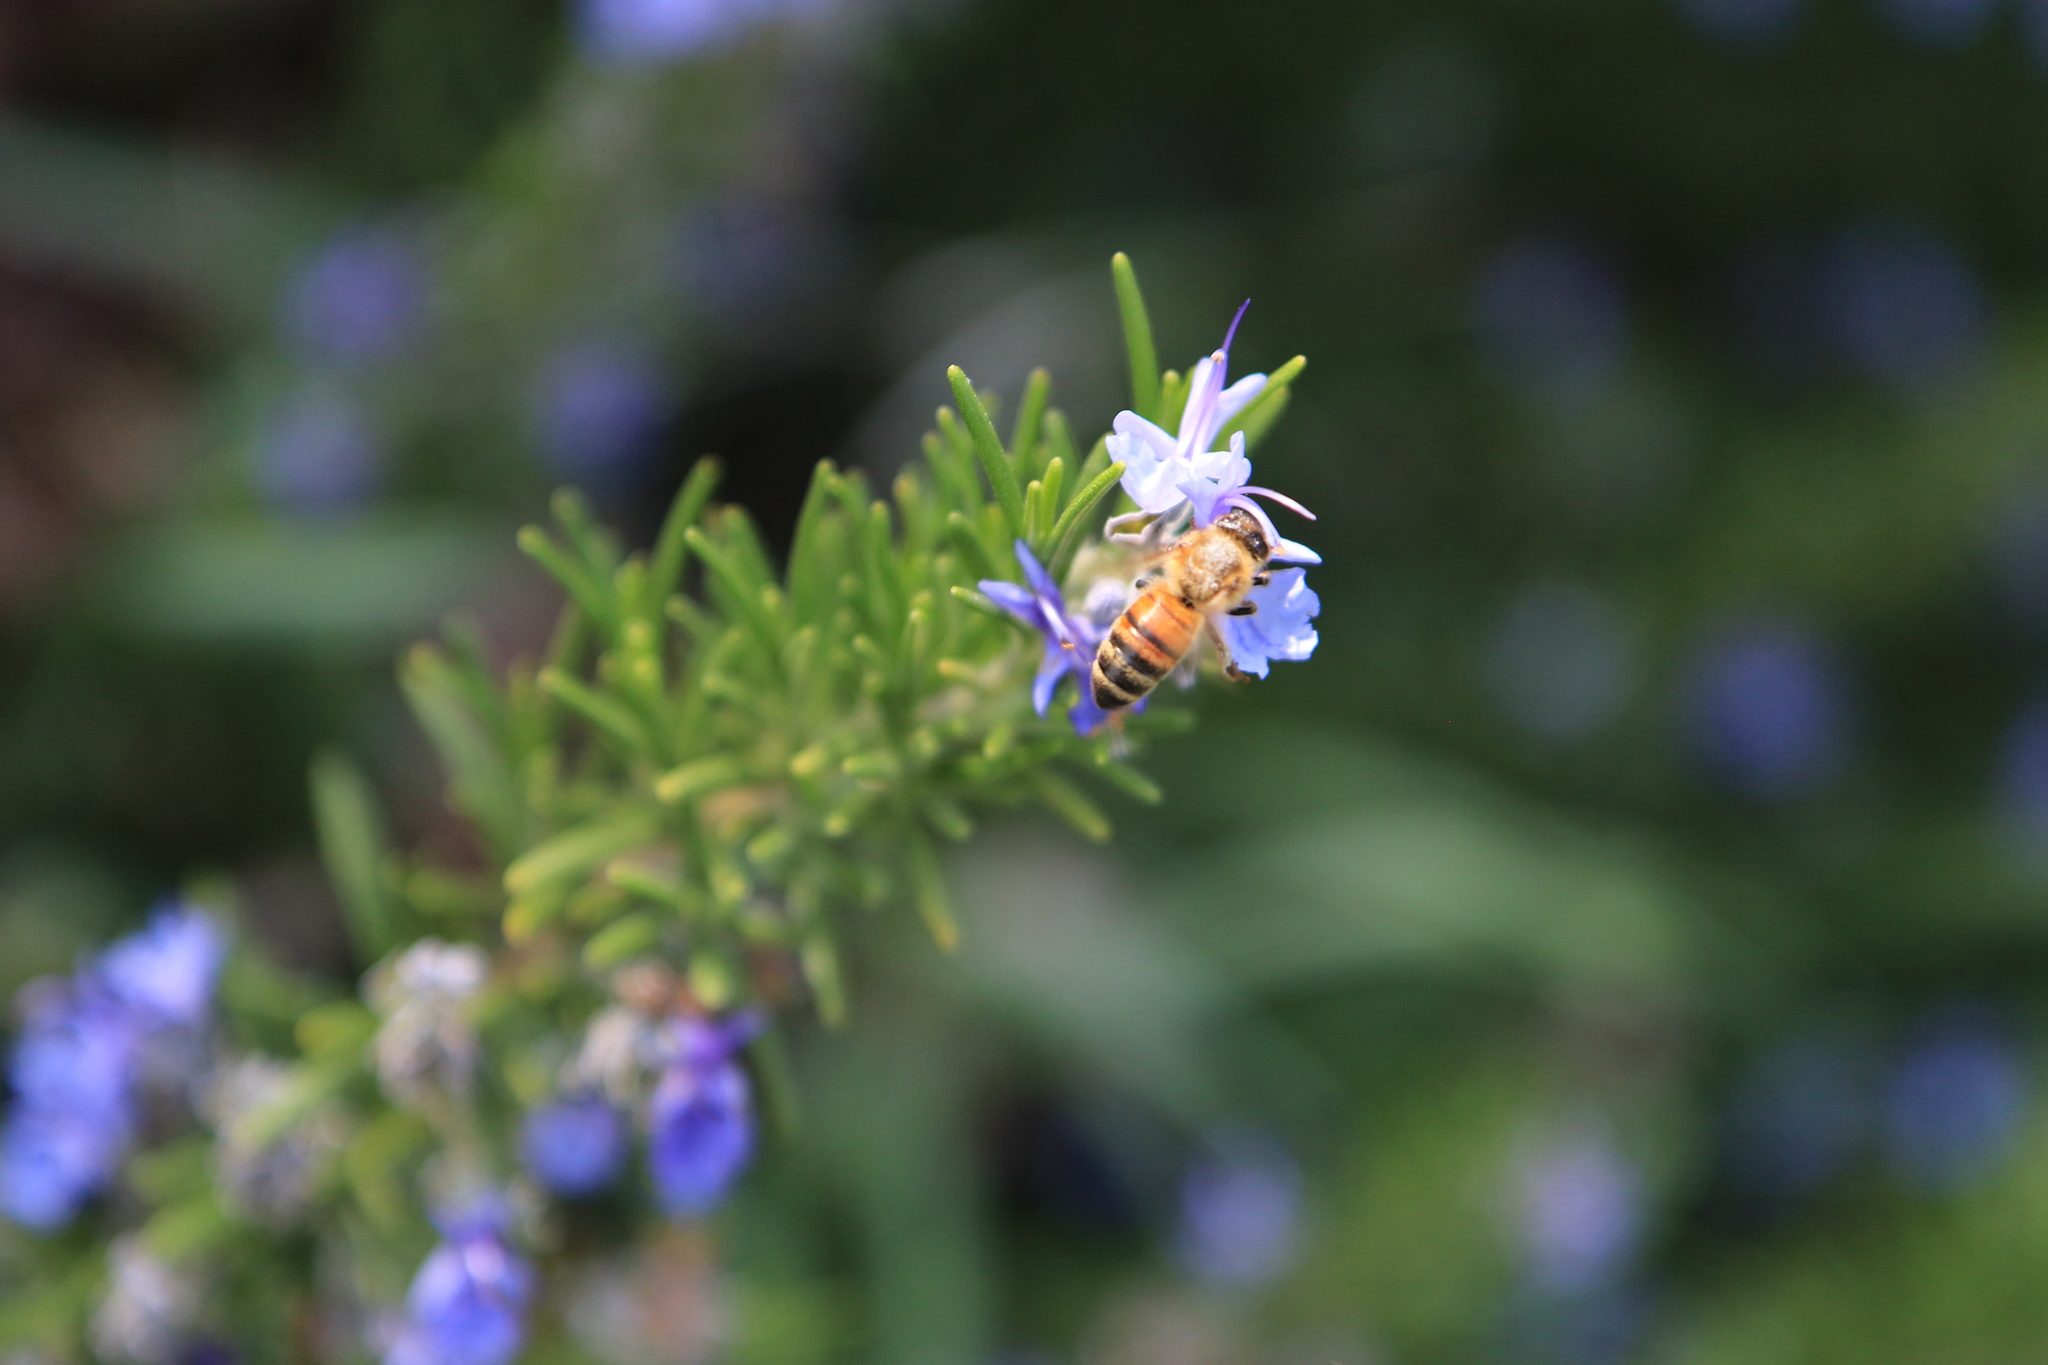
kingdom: Animalia
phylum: Arthropoda
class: Insecta
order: Hymenoptera
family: Apidae
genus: Apis
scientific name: Apis mellifera
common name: Honey bee
